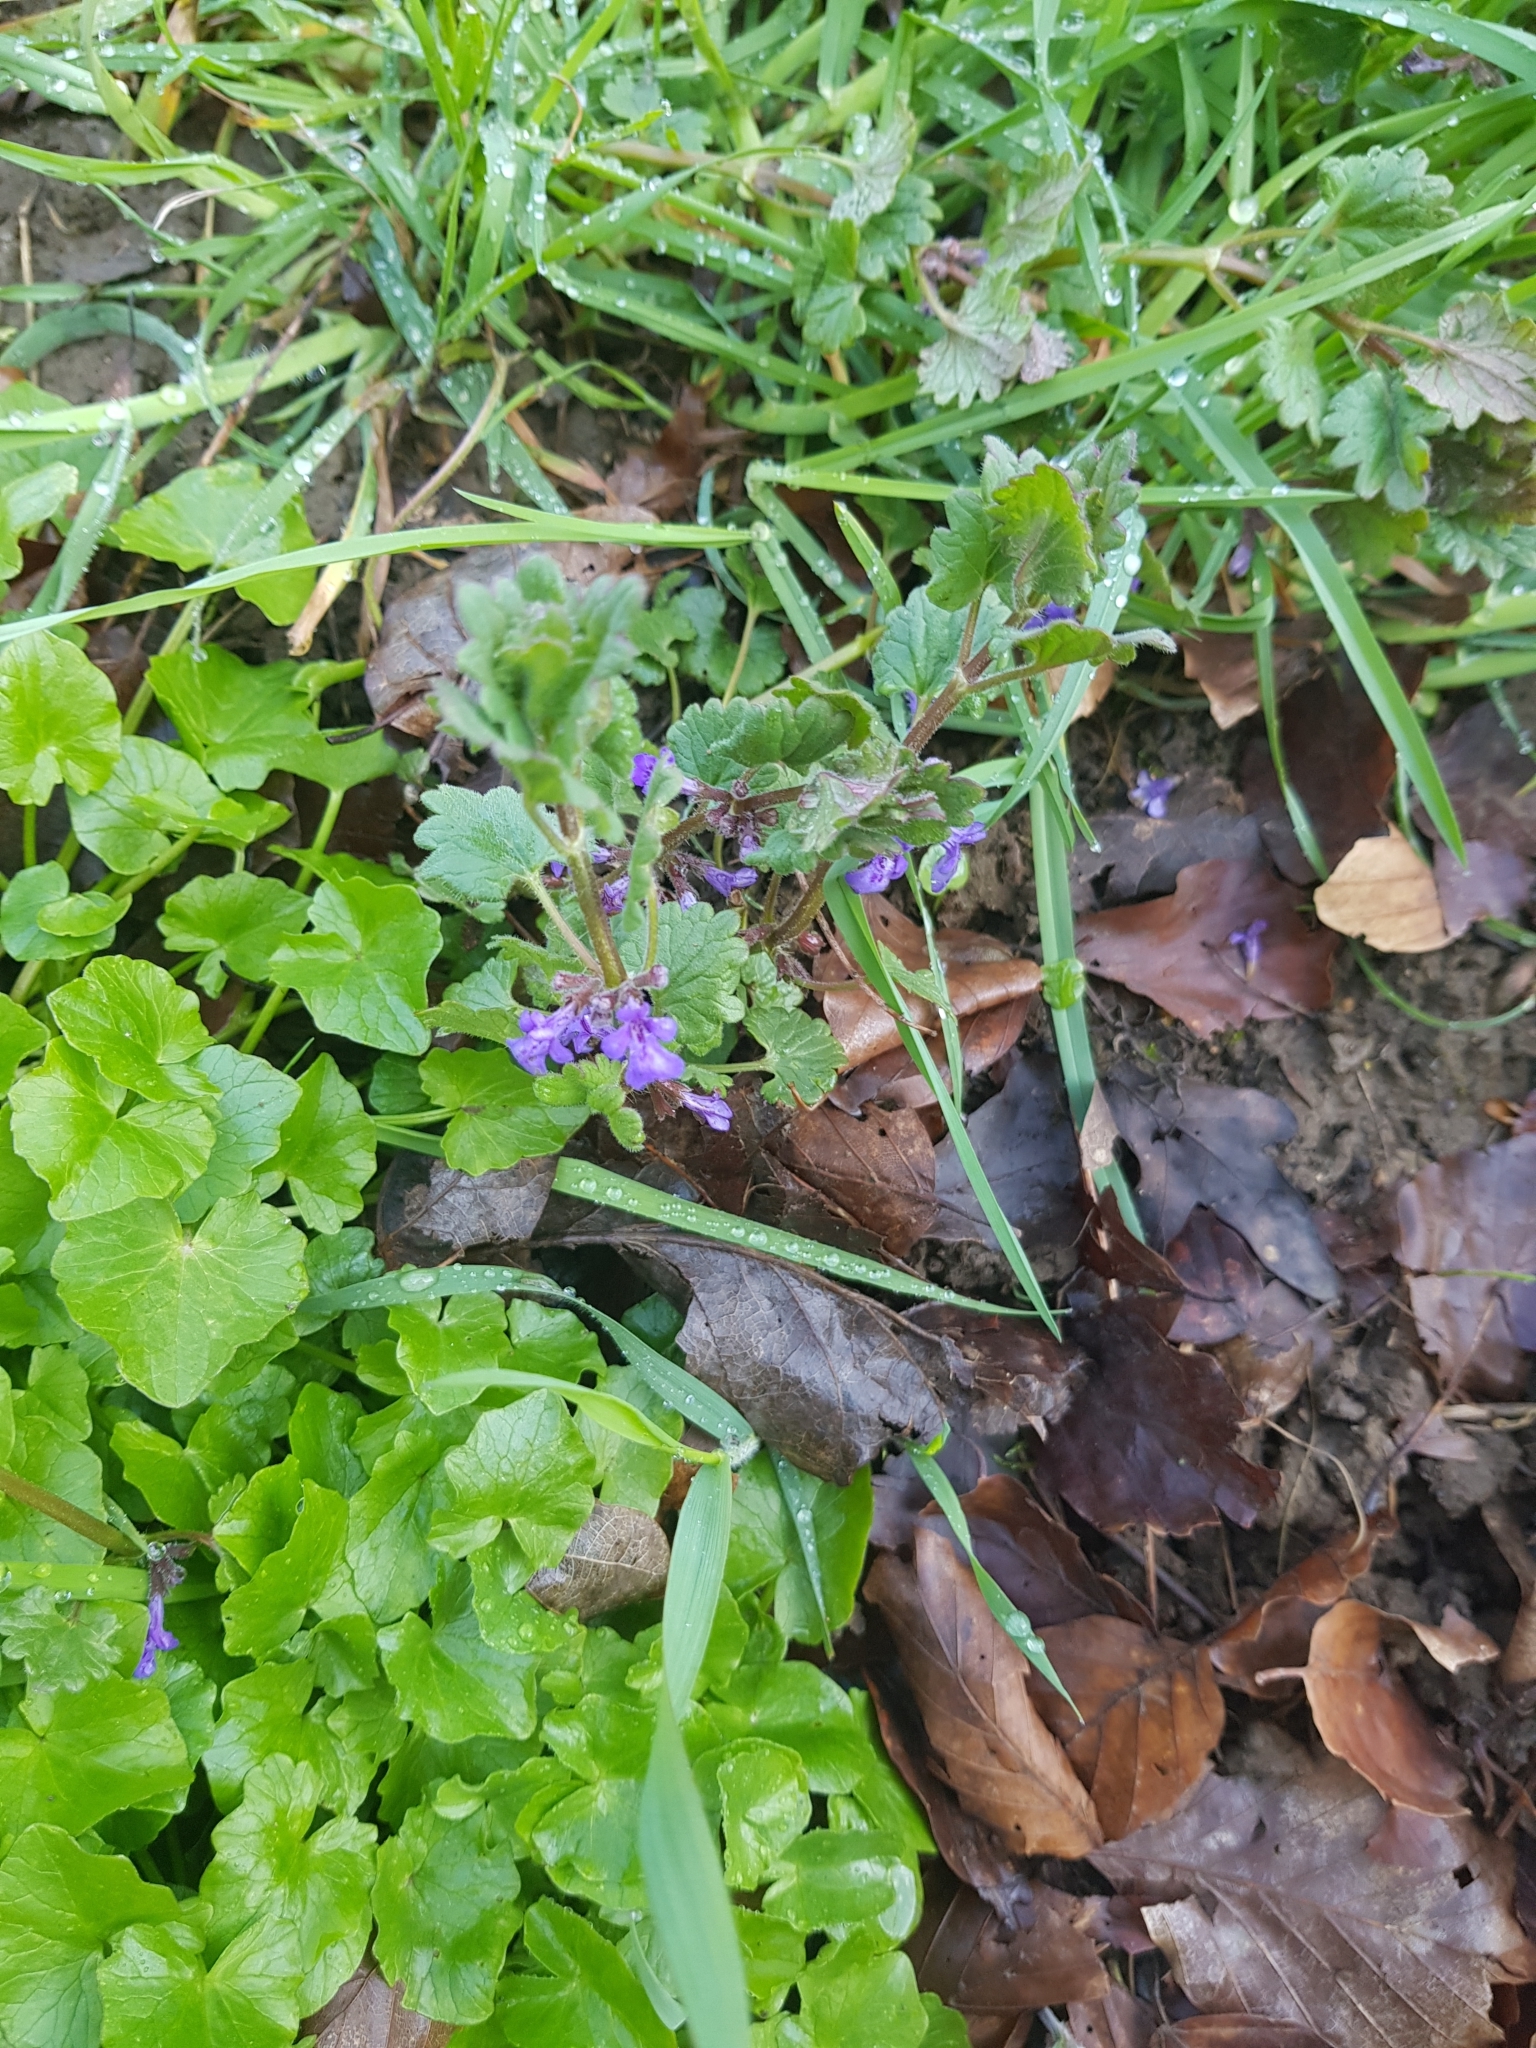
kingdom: Plantae
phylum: Tracheophyta
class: Magnoliopsida
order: Lamiales
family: Lamiaceae
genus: Glechoma
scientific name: Glechoma hederacea
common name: Ground ivy
